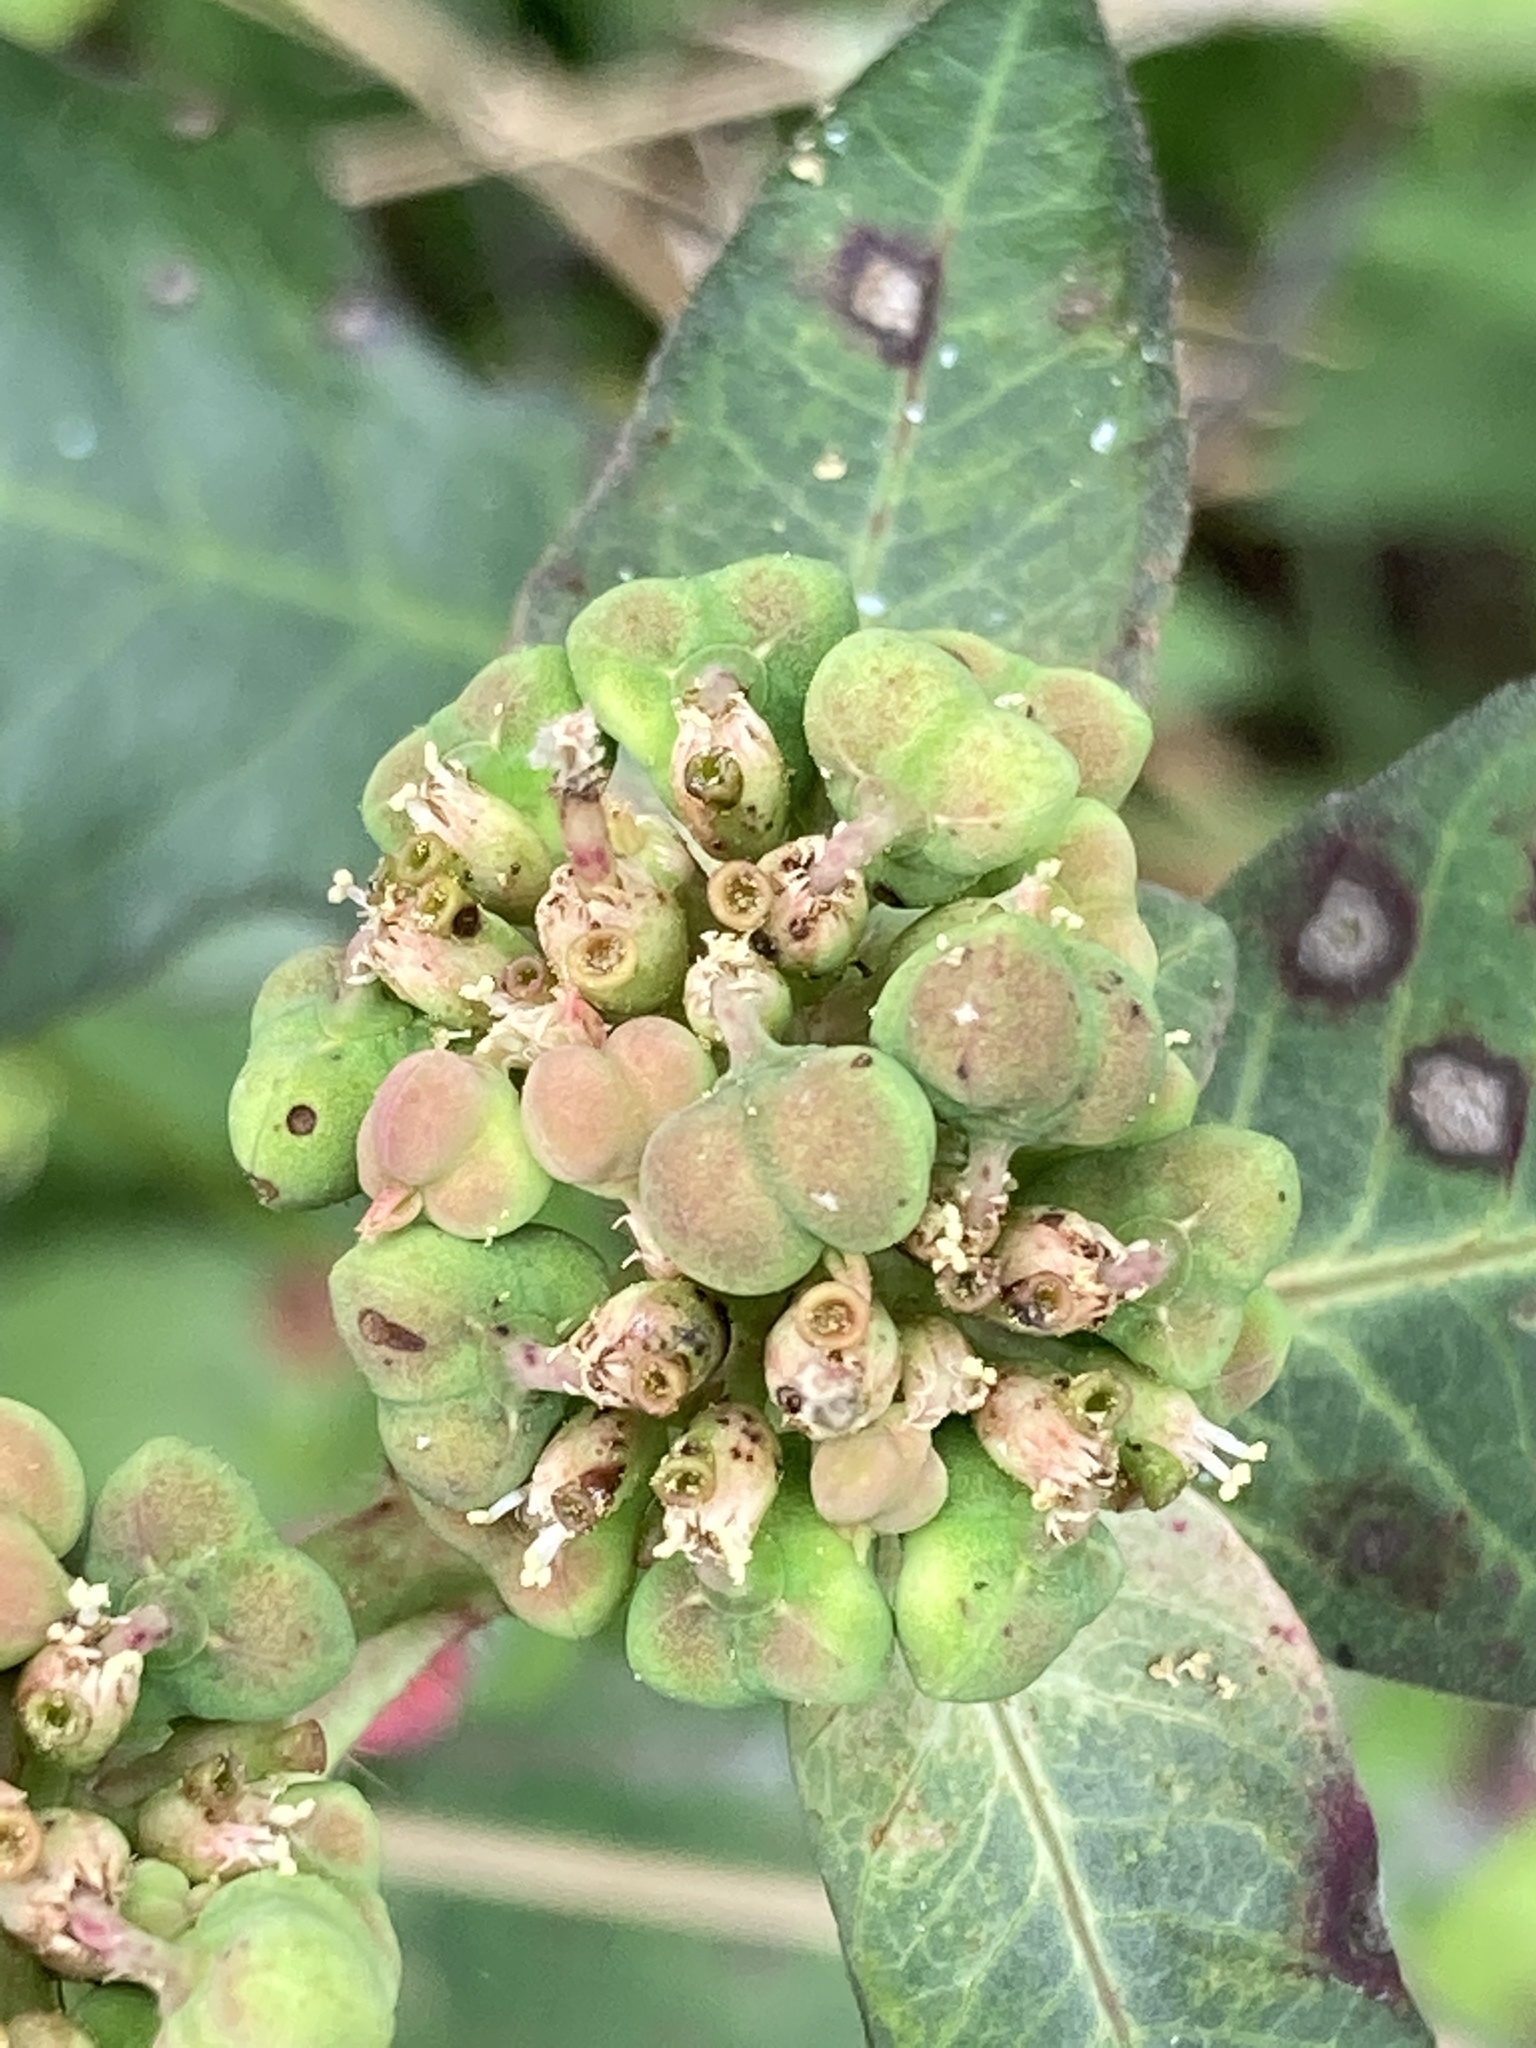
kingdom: Plantae
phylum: Tracheophyta
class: Magnoliopsida
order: Malpighiales
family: Euphorbiaceae
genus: Euphorbia
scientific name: Euphorbia heterophylla
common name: Mexican fireplant
